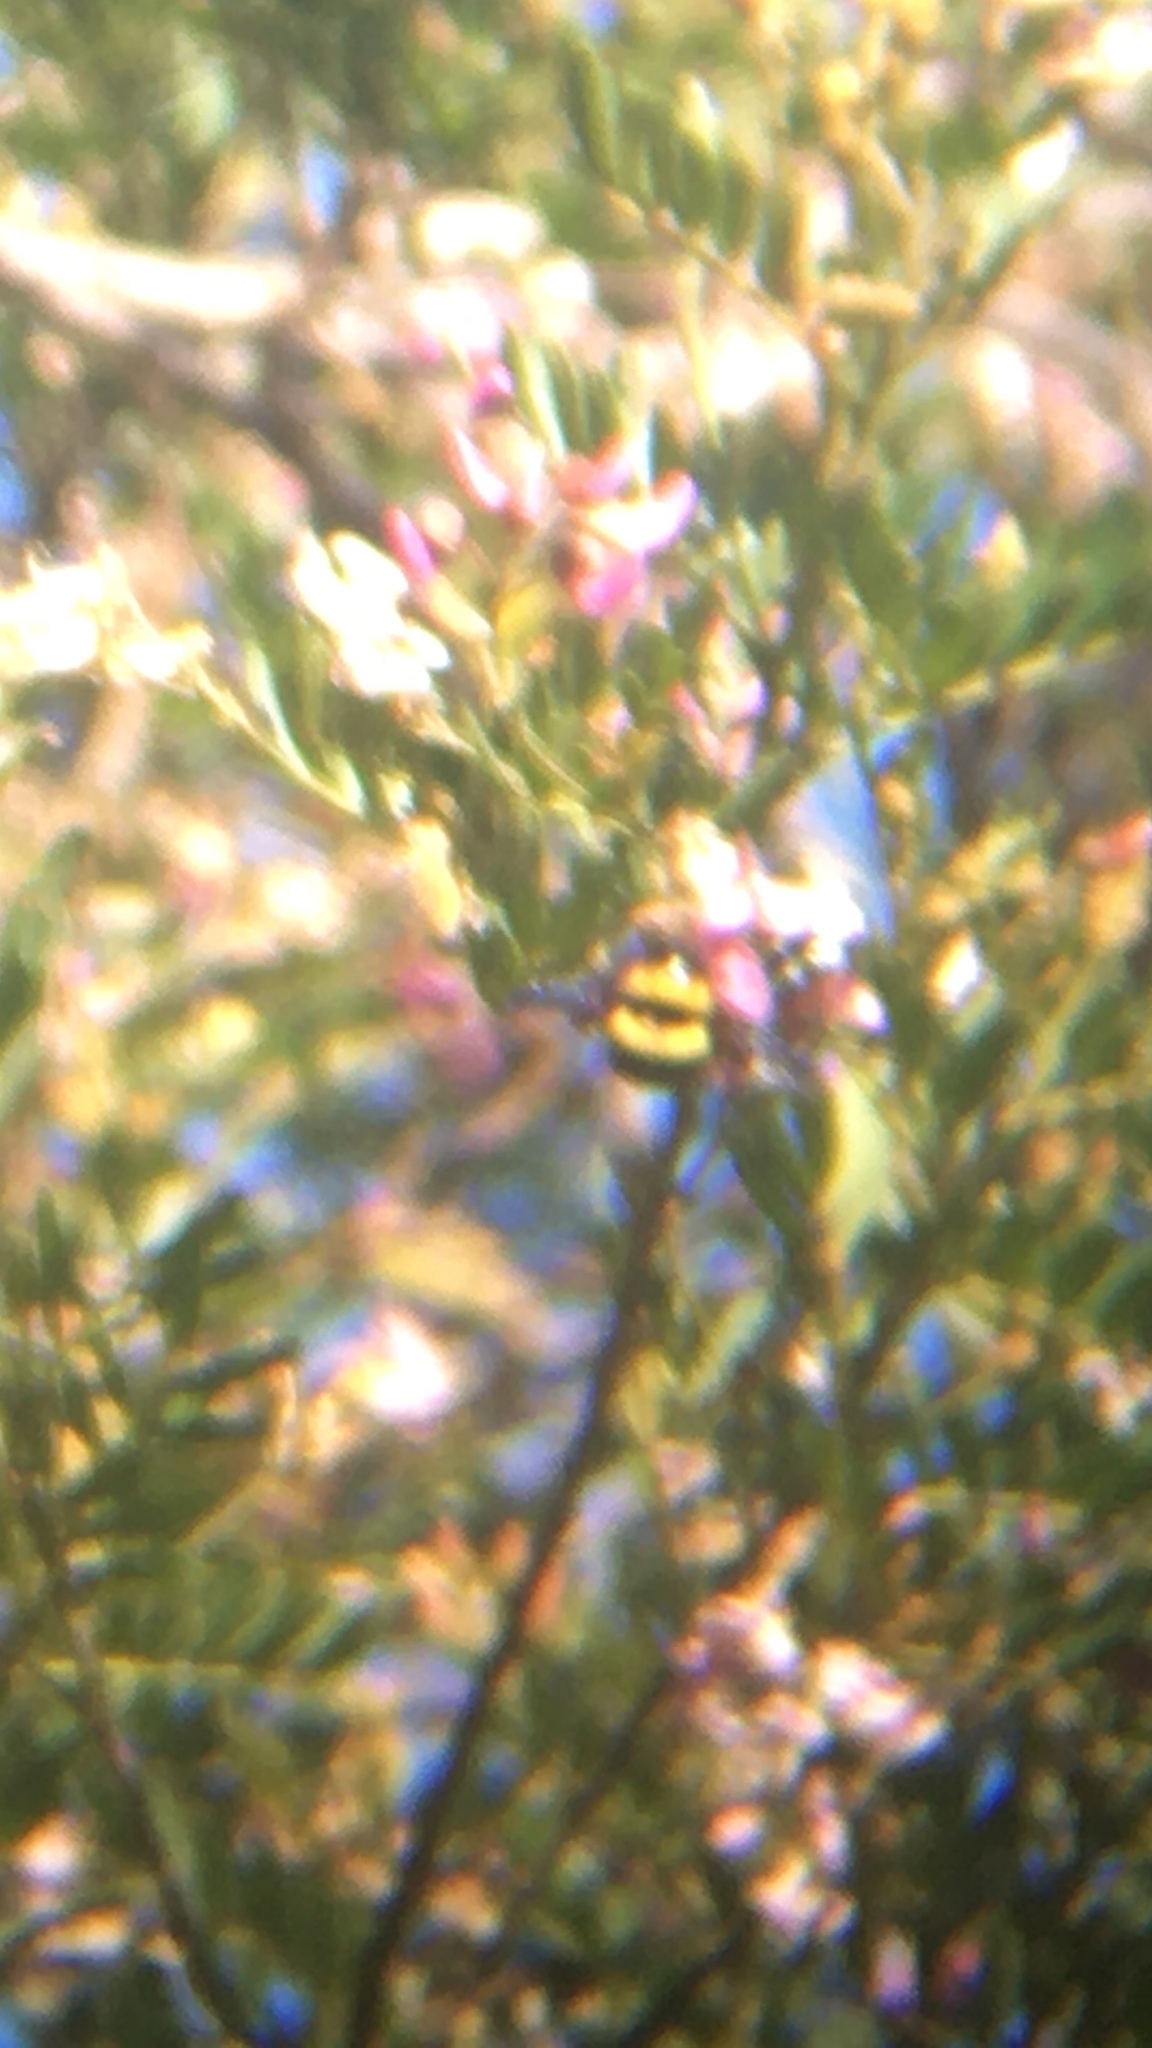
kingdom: Animalia
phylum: Arthropoda
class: Insecta
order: Hymenoptera
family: Apidae
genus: Xylocopa
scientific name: Xylocopa caffra
